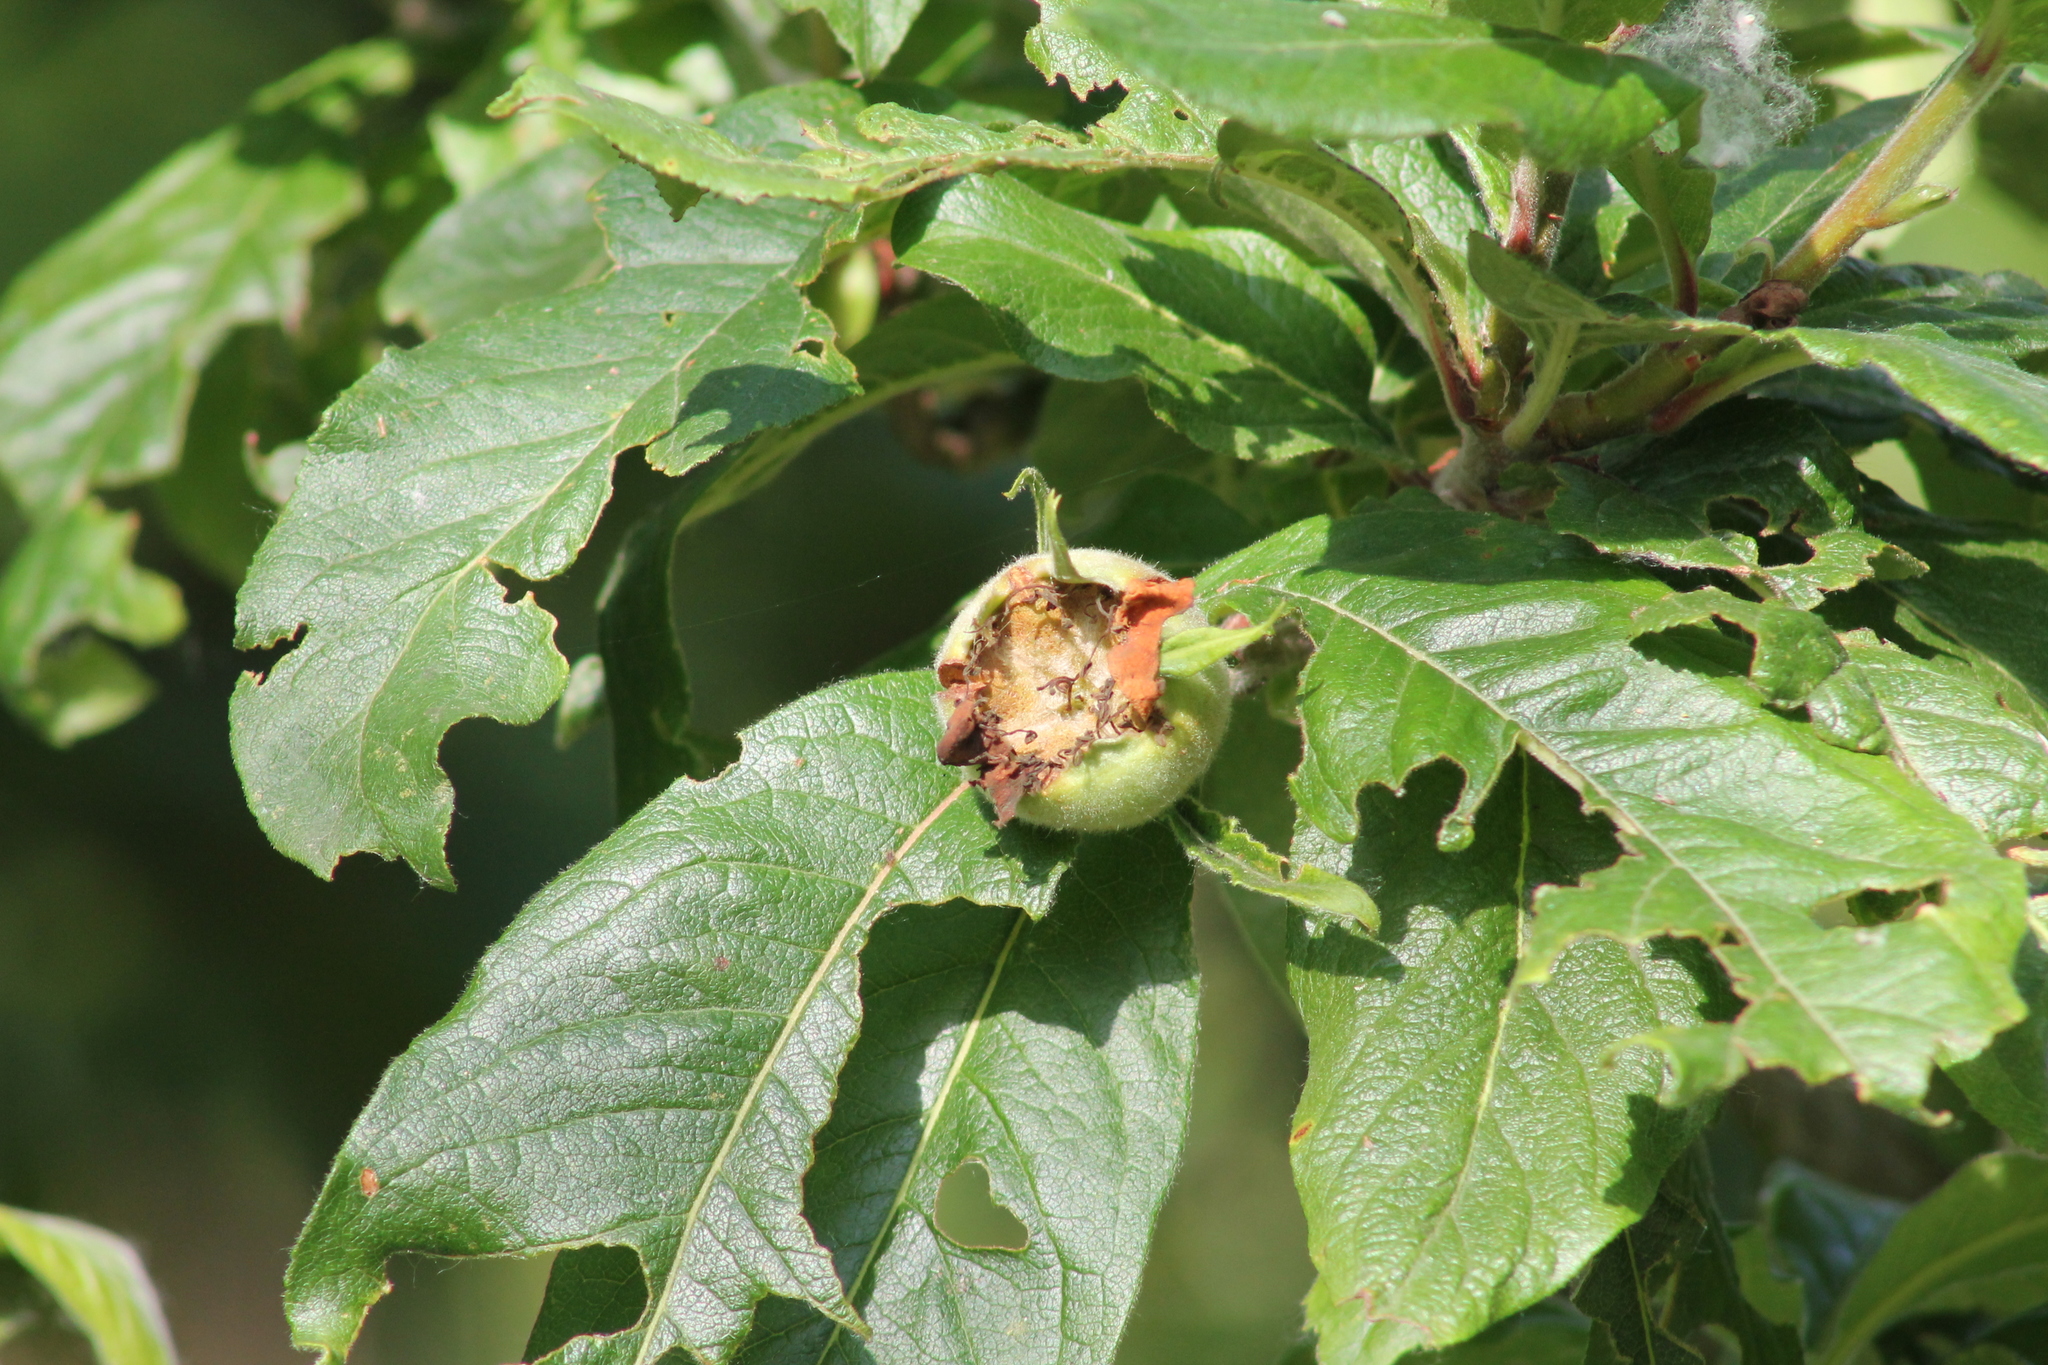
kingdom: Plantae
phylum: Tracheophyta
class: Magnoliopsida
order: Rosales
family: Rosaceae
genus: Mespilus
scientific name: Mespilus germanica
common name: Medlar
